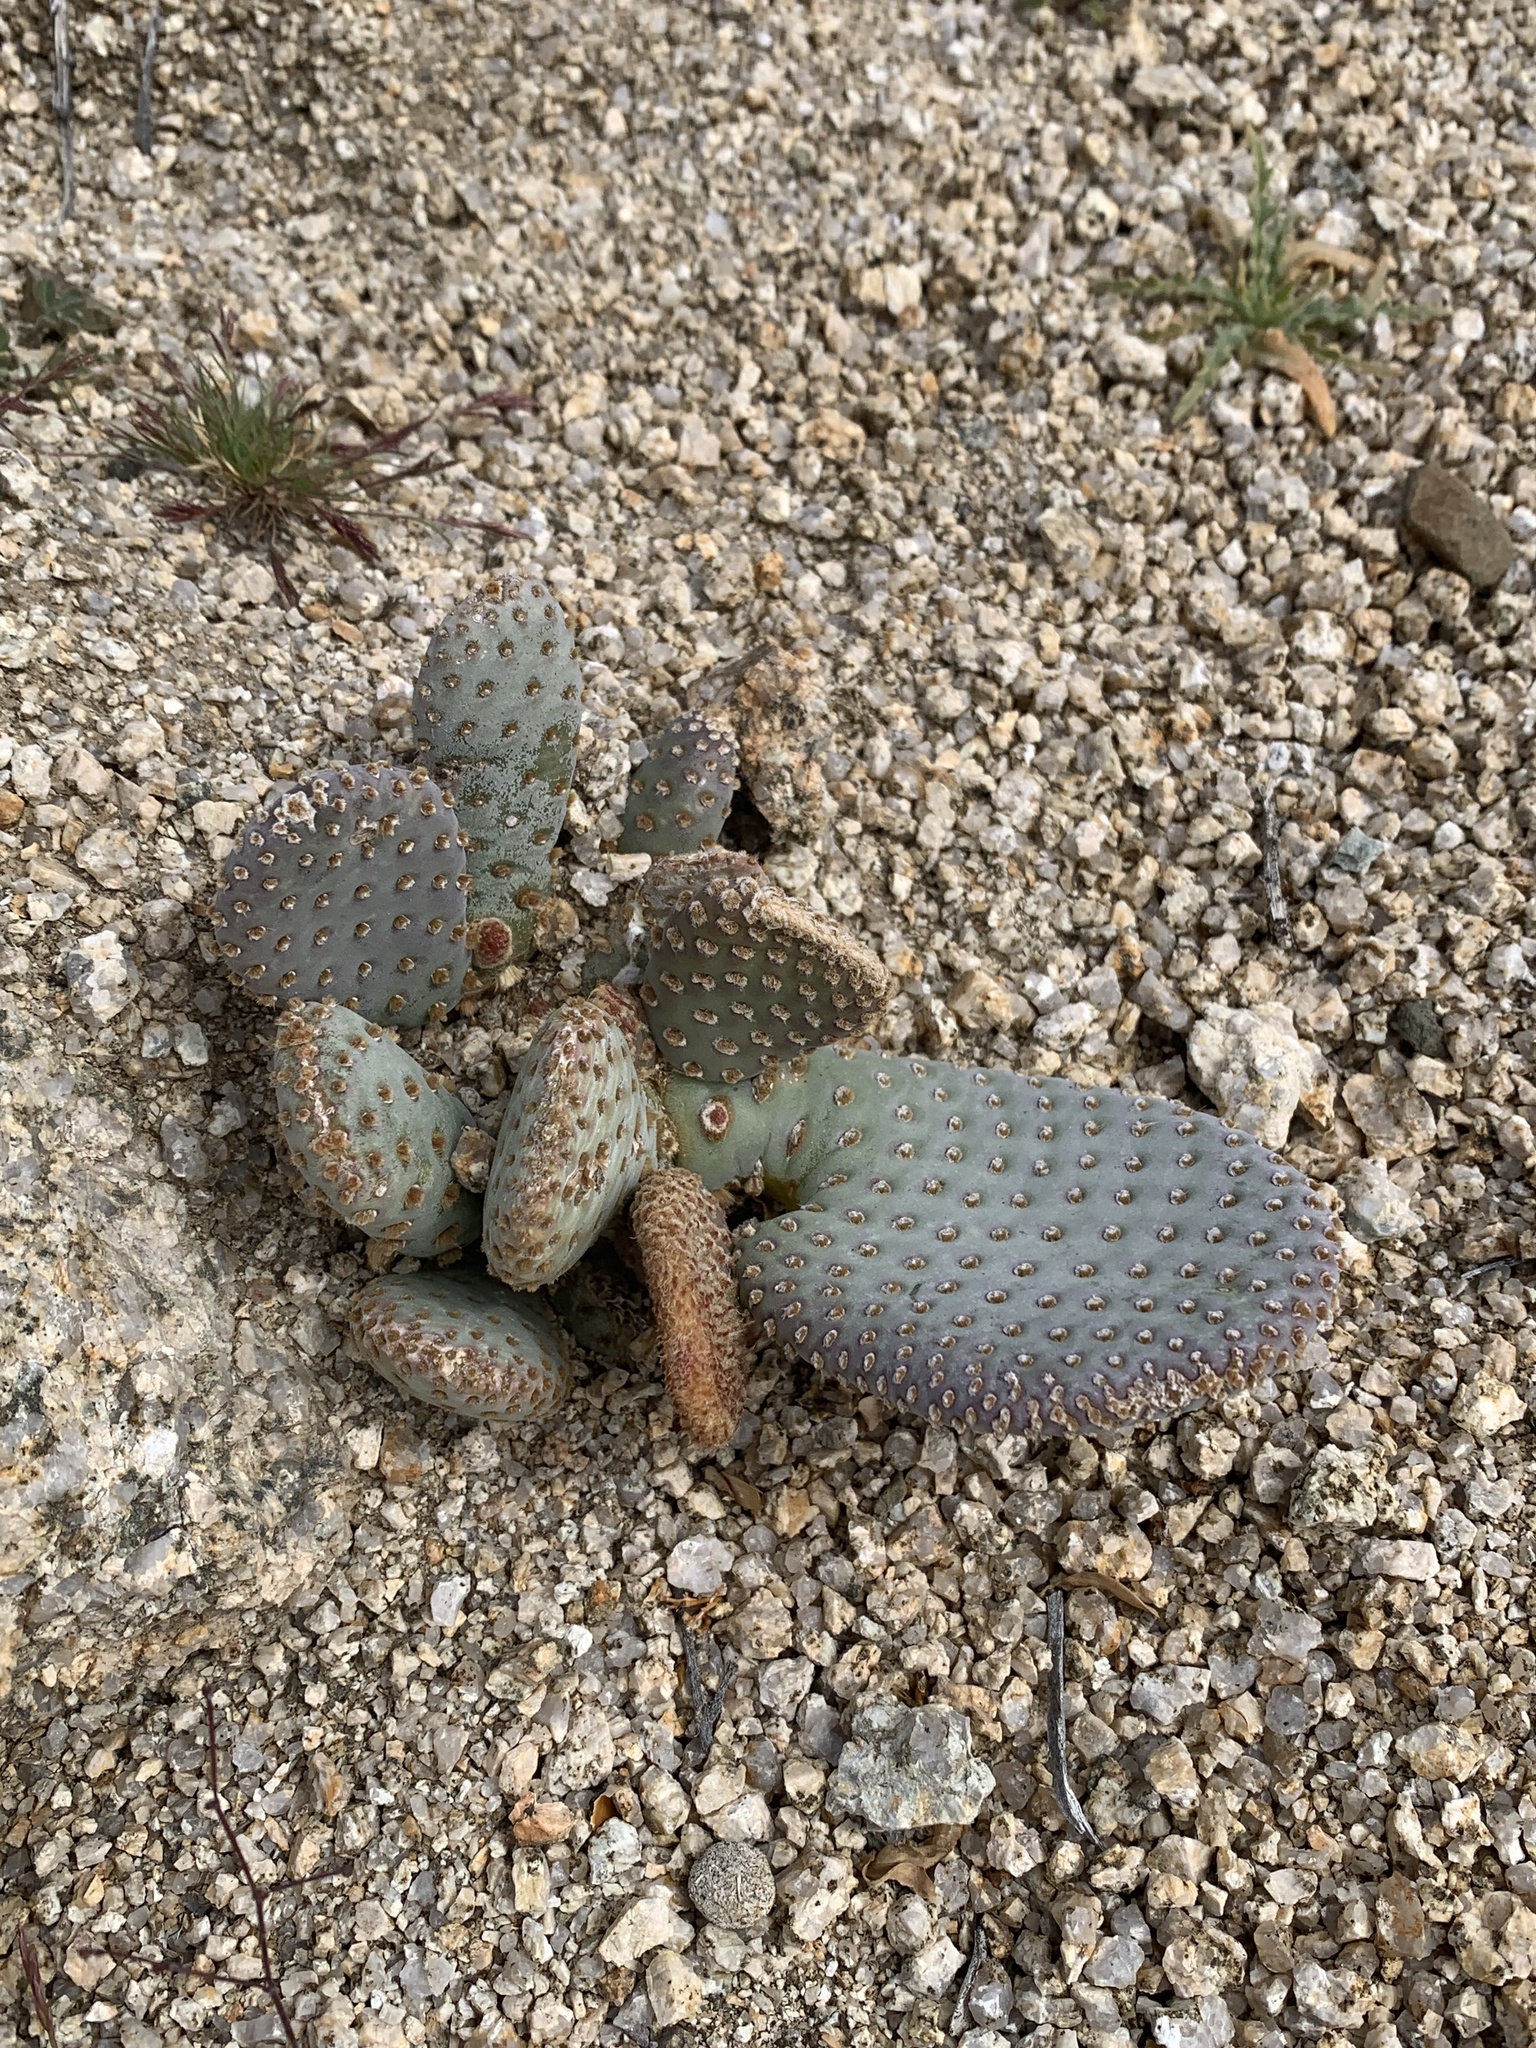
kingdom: Plantae
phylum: Tracheophyta
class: Magnoliopsida
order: Caryophyllales
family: Cactaceae
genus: Opuntia
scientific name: Opuntia basilaris
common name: Beavertail prickly-pear
